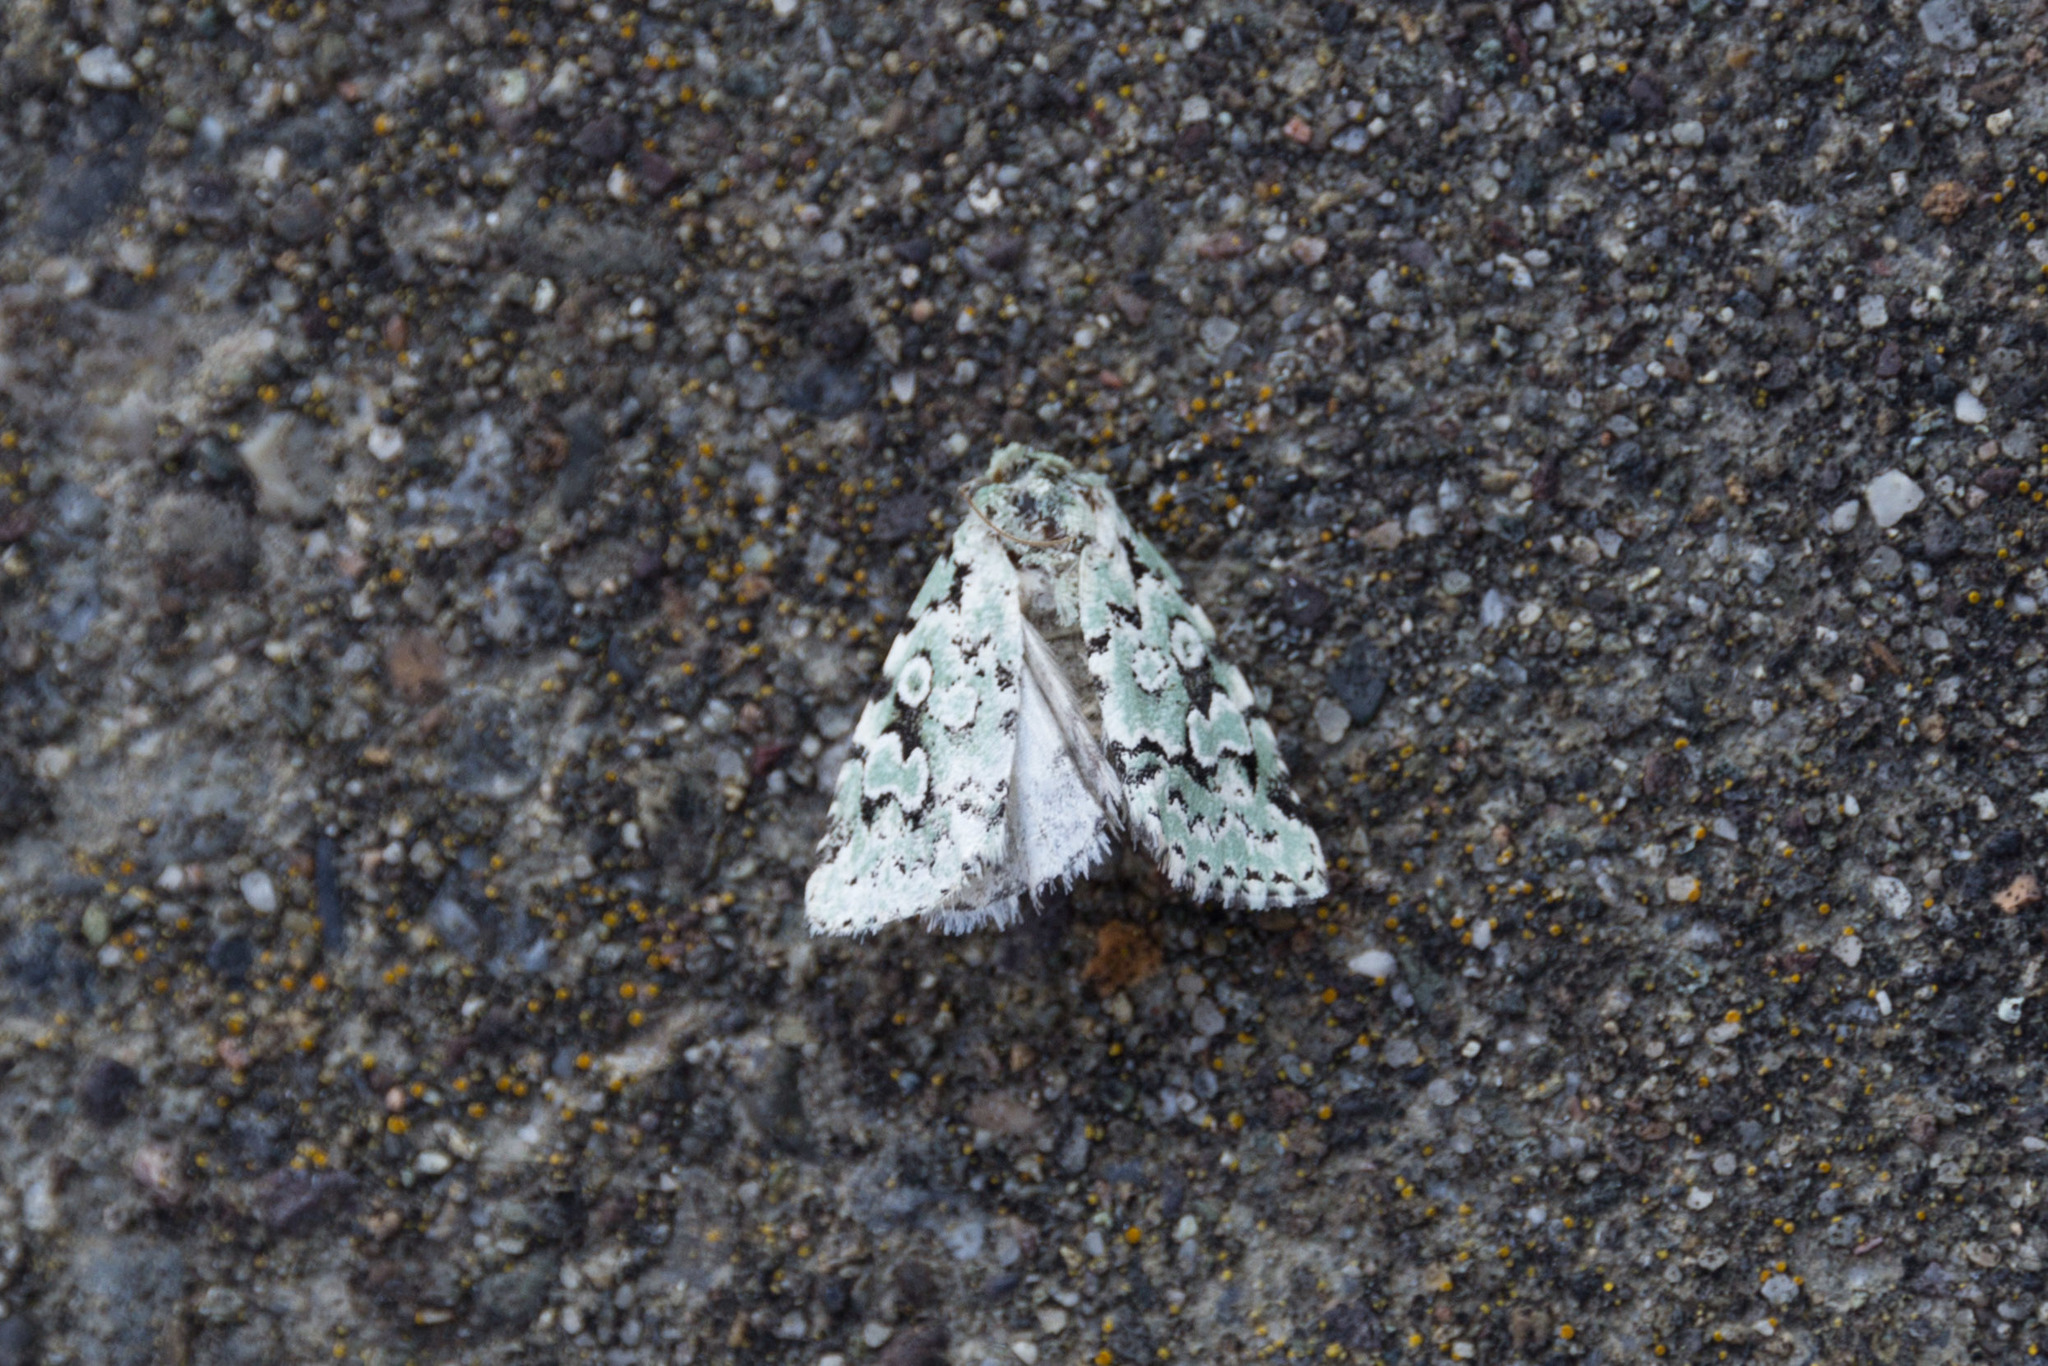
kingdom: Animalia
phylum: Arthropoda
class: Insecta
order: Lepidoptera
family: Noctuidae
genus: Bryolymnia
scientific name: Bryolymnia viridata
